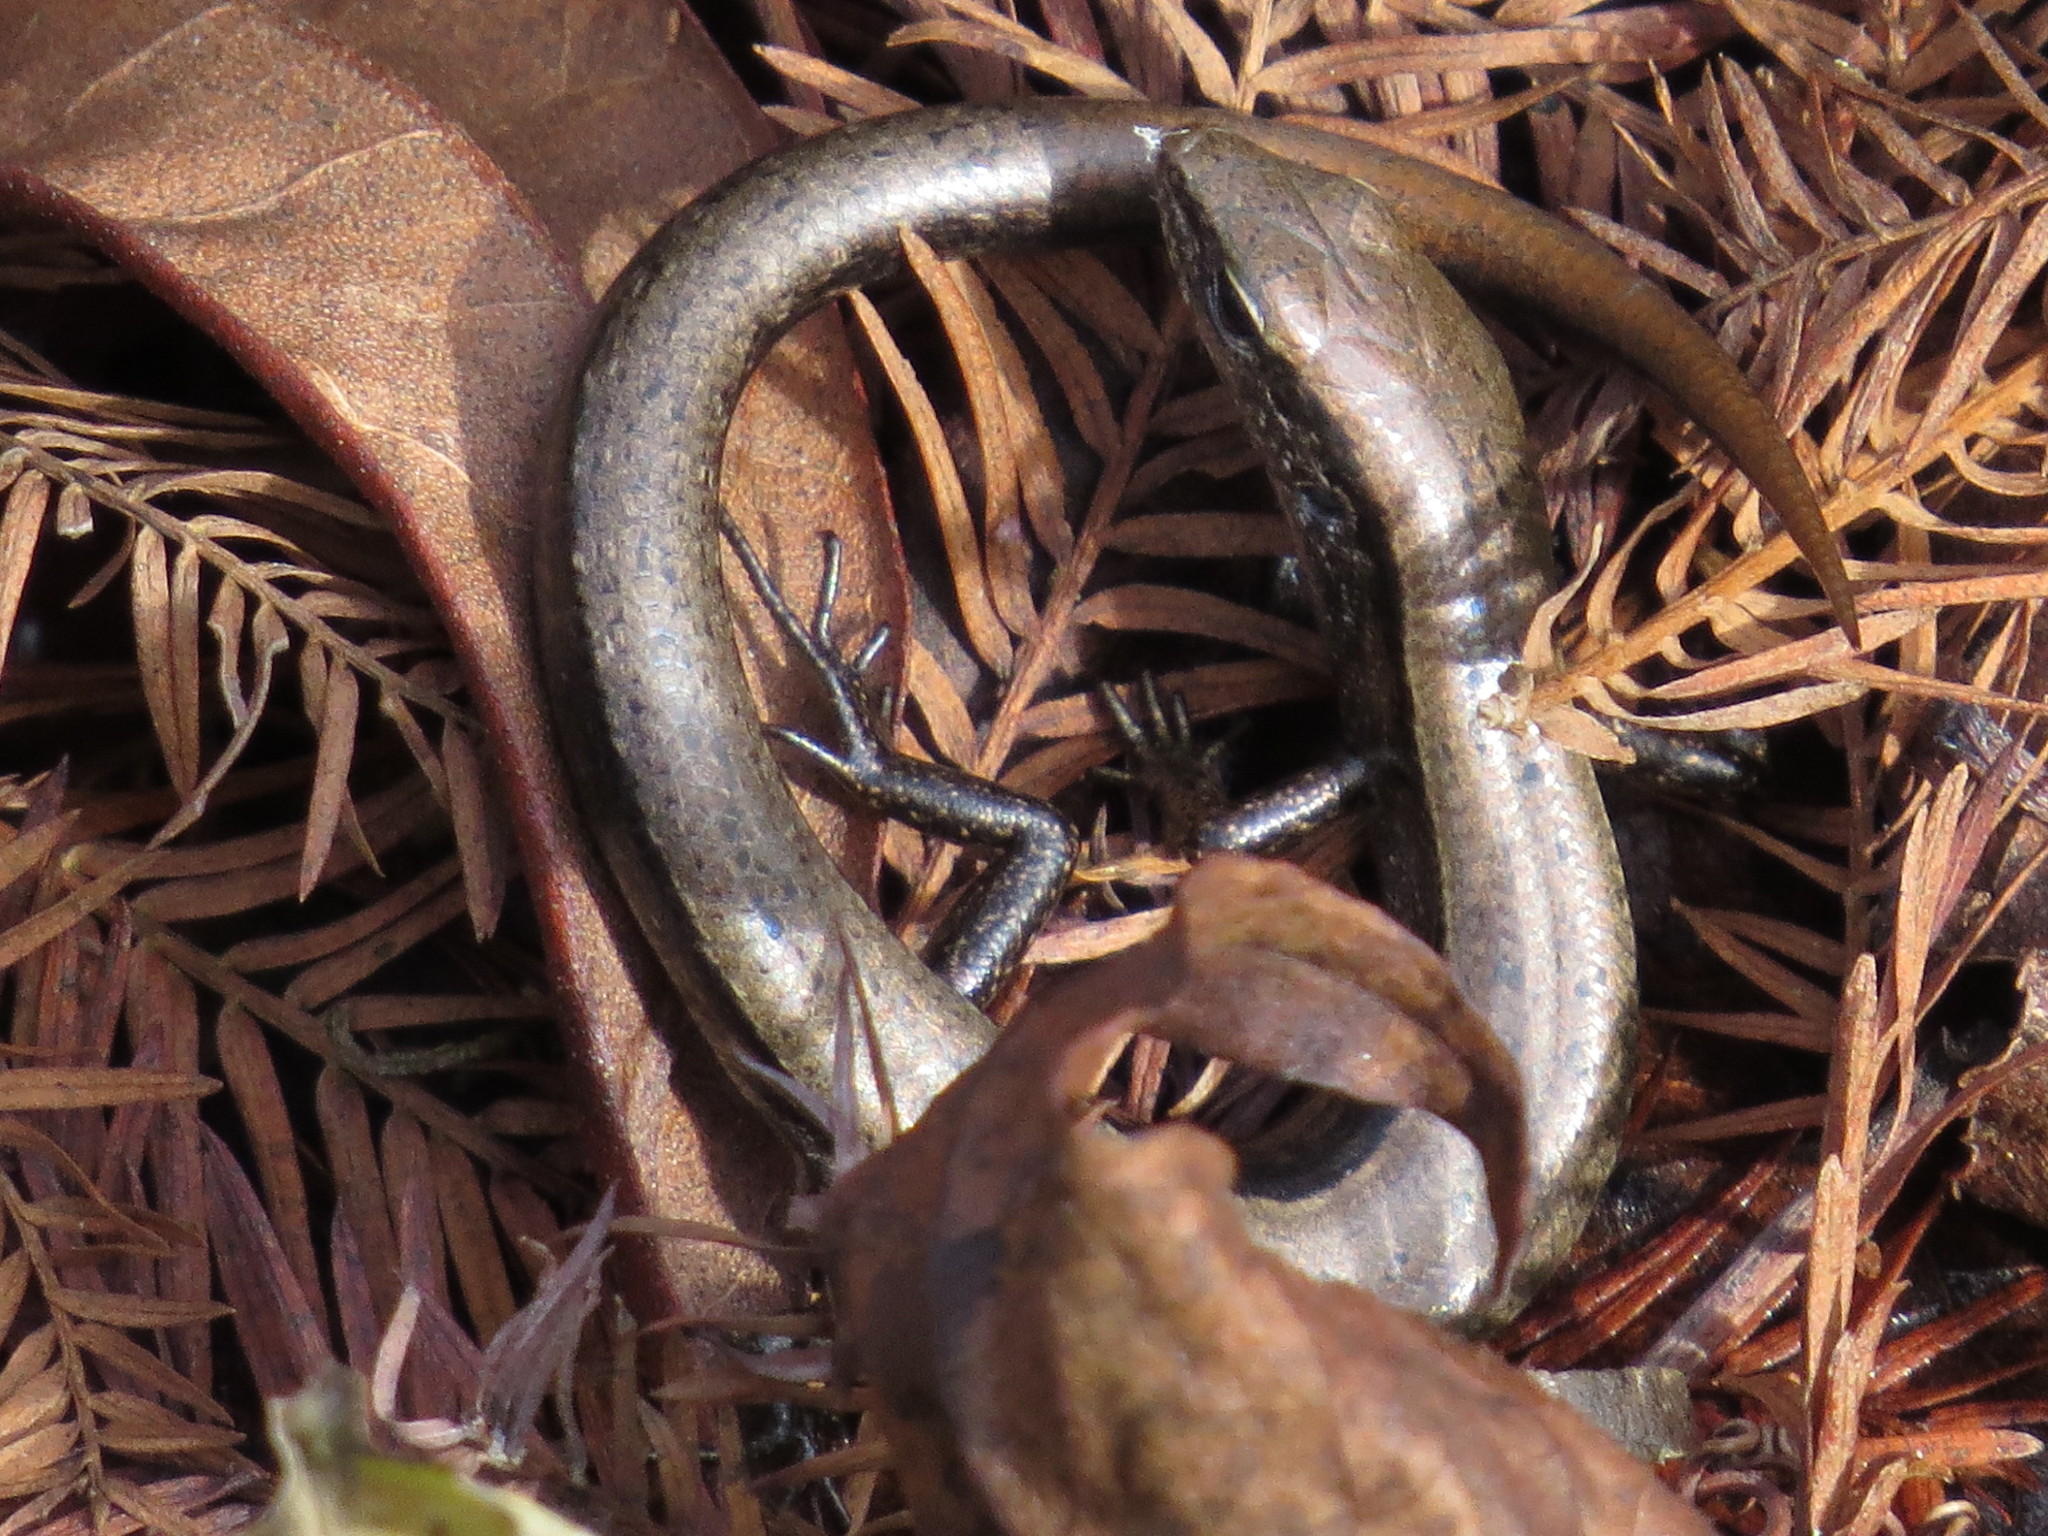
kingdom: Animalia
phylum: Chordata
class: Squamata
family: Scincidae
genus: Scincella
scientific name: Scincella lateralis
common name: Ground skink
